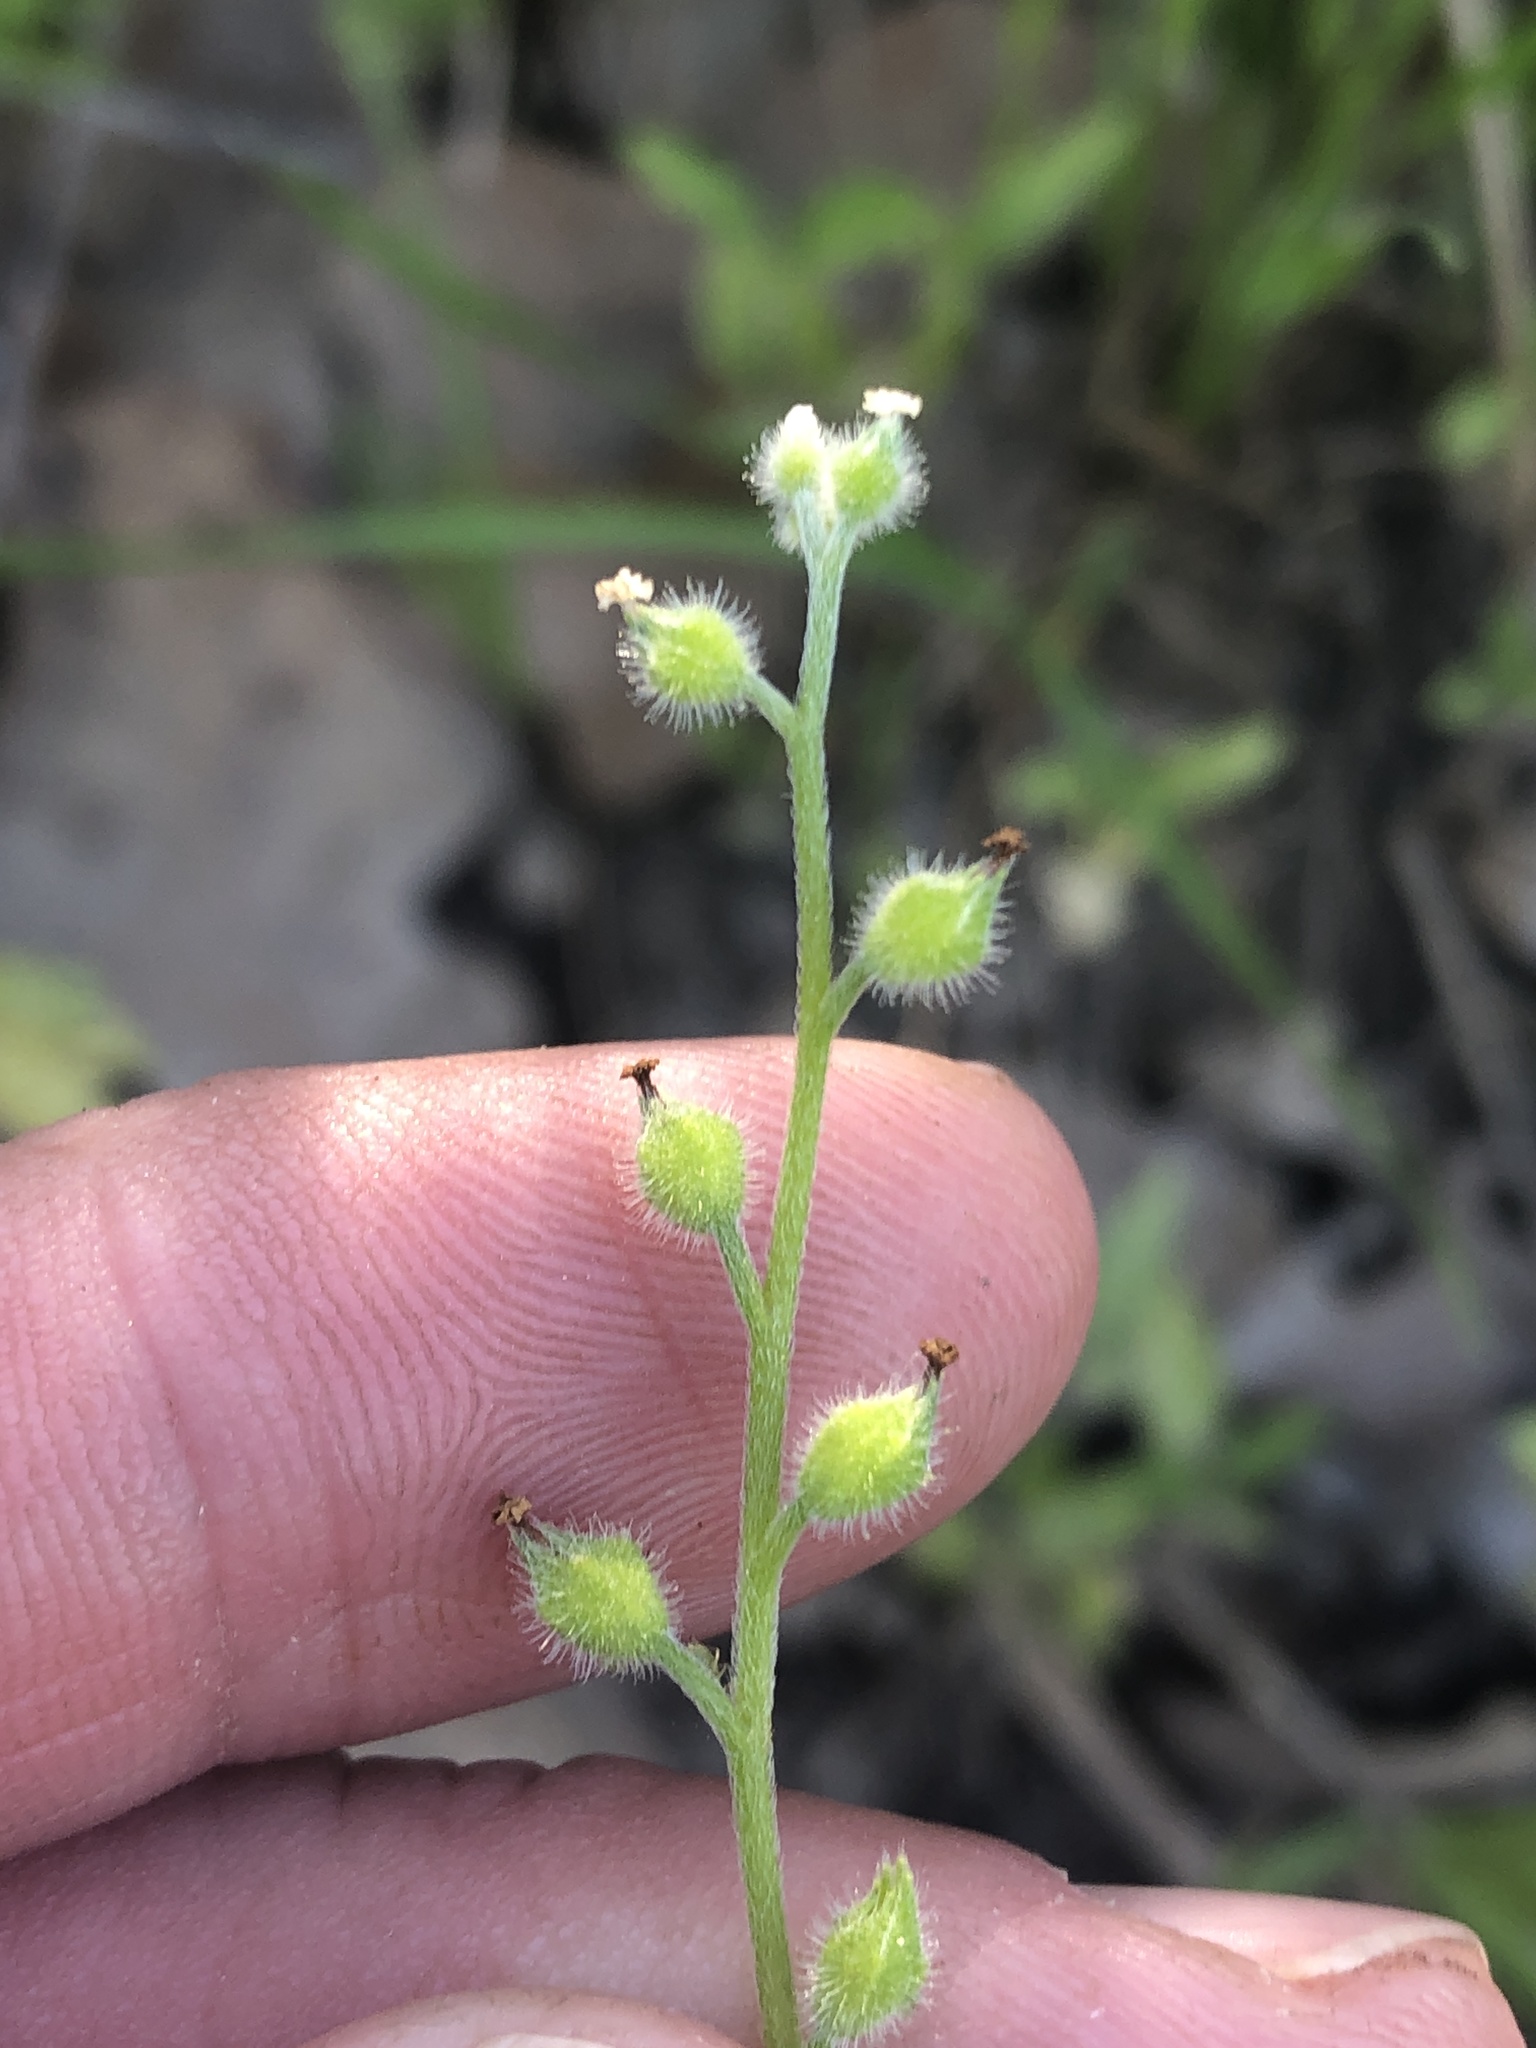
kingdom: Plantae
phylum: Tracheophyta
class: Magnoliopsida
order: Boraginales
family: Boraginaceae
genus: Myosotis
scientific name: Myosotis macrosperma
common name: Large-seed forget-me-not
